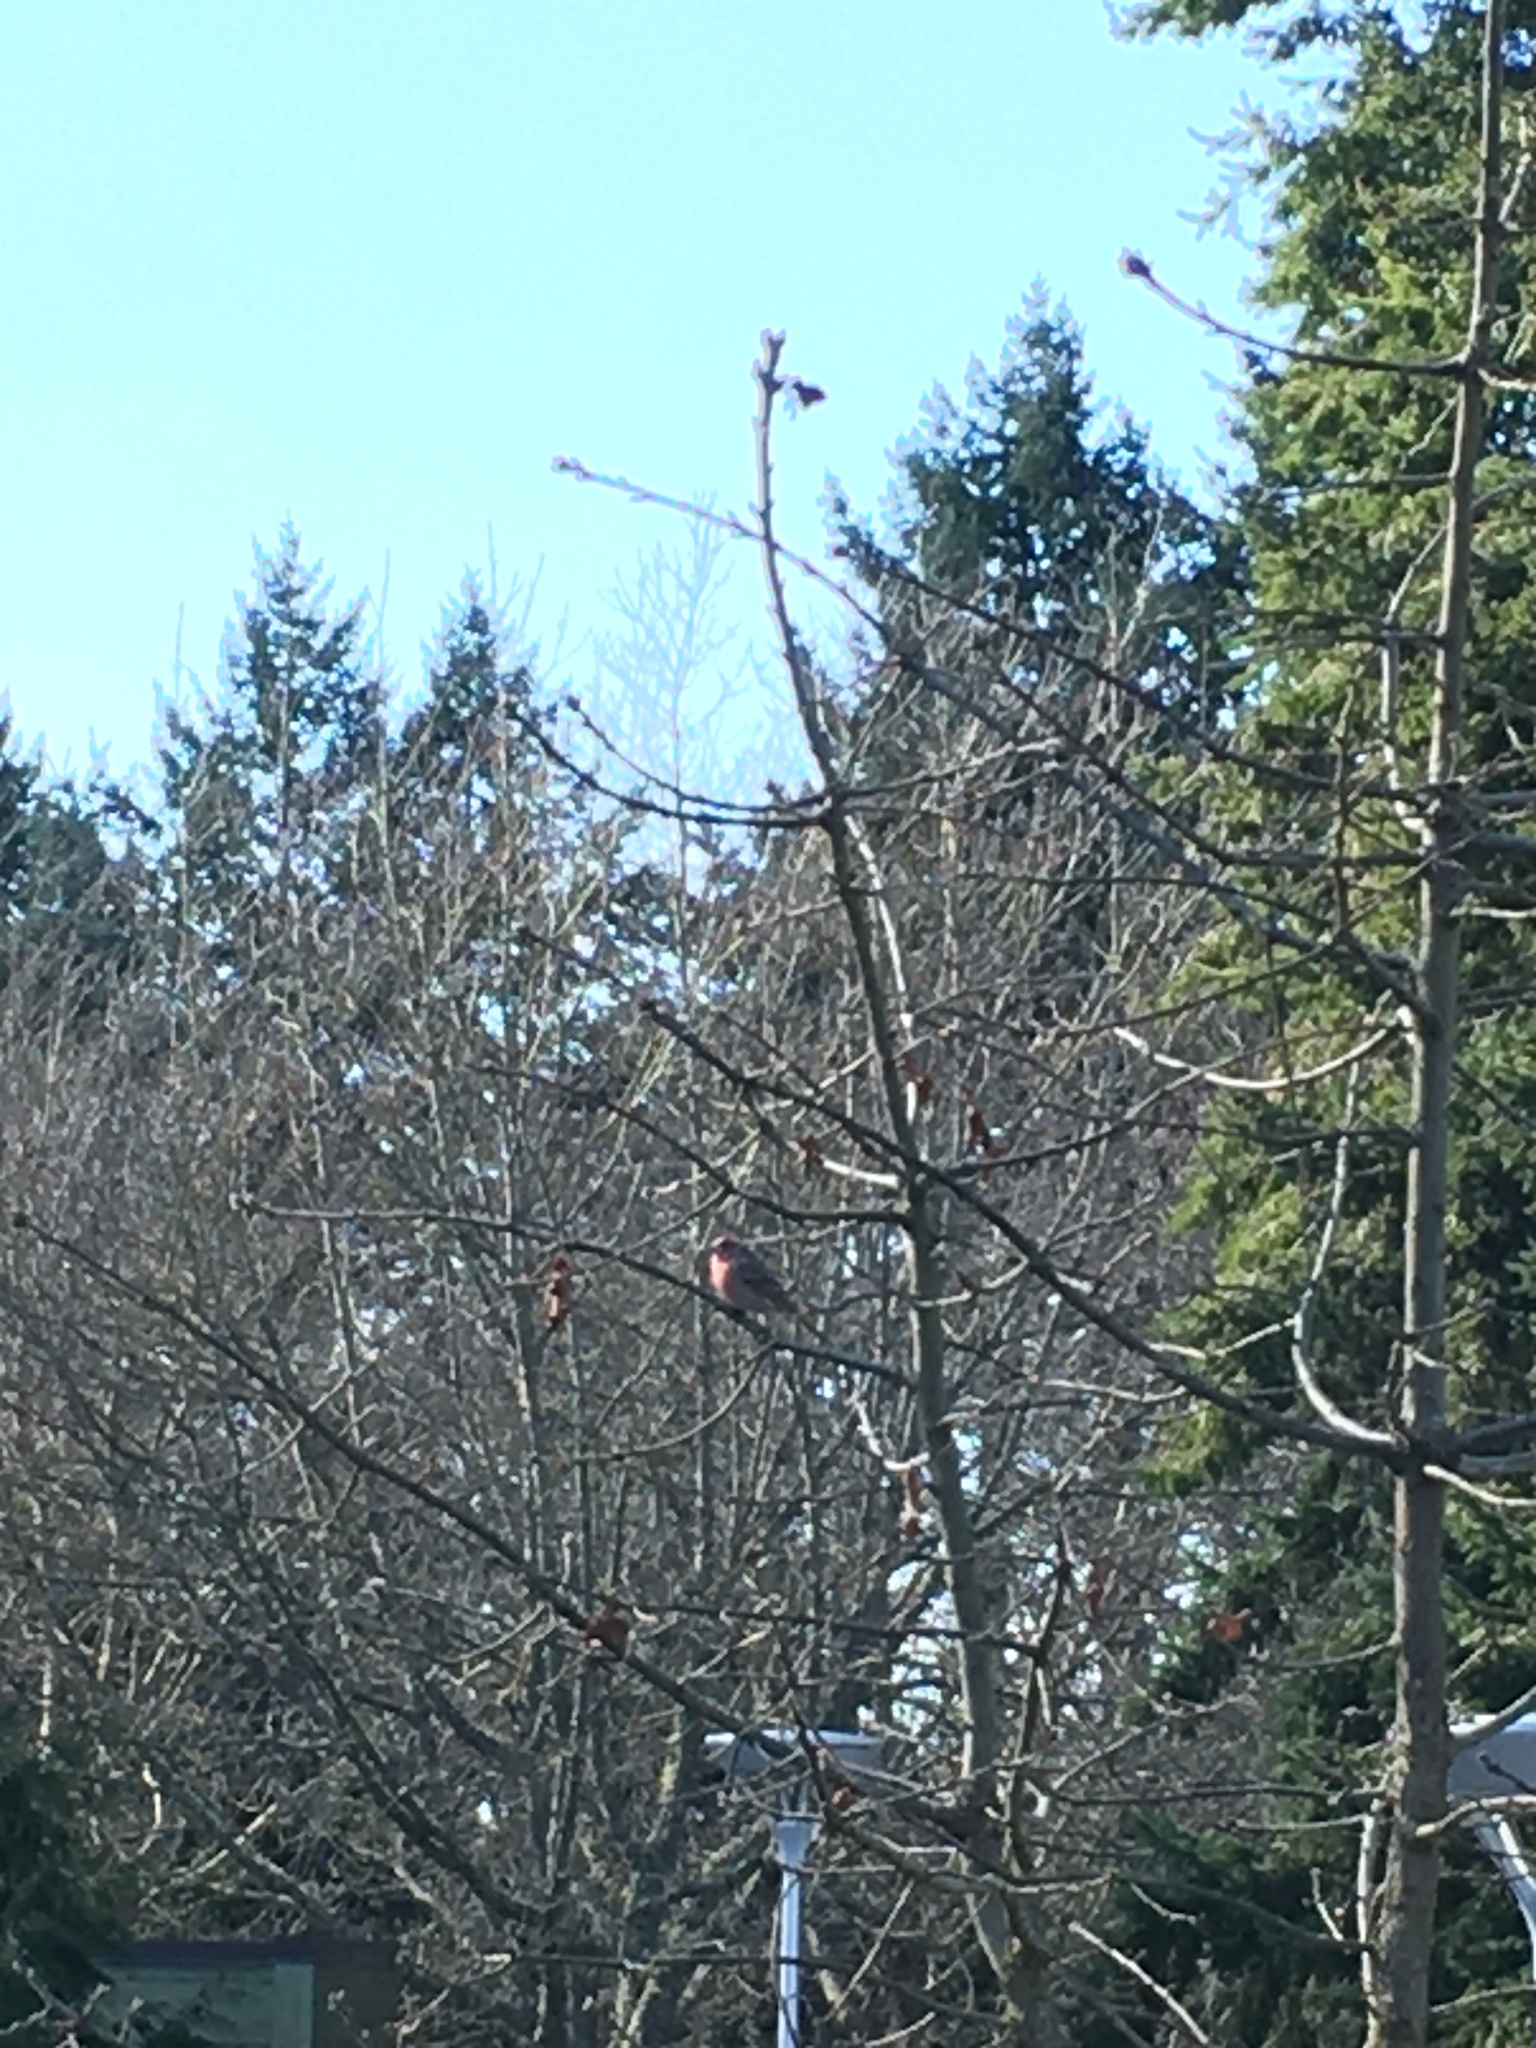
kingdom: Animalia
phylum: Chordata
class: Aves
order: Passeriformes
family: Fringillidae
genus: Haemorhous
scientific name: Haemorhous mexicanus
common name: House finch
